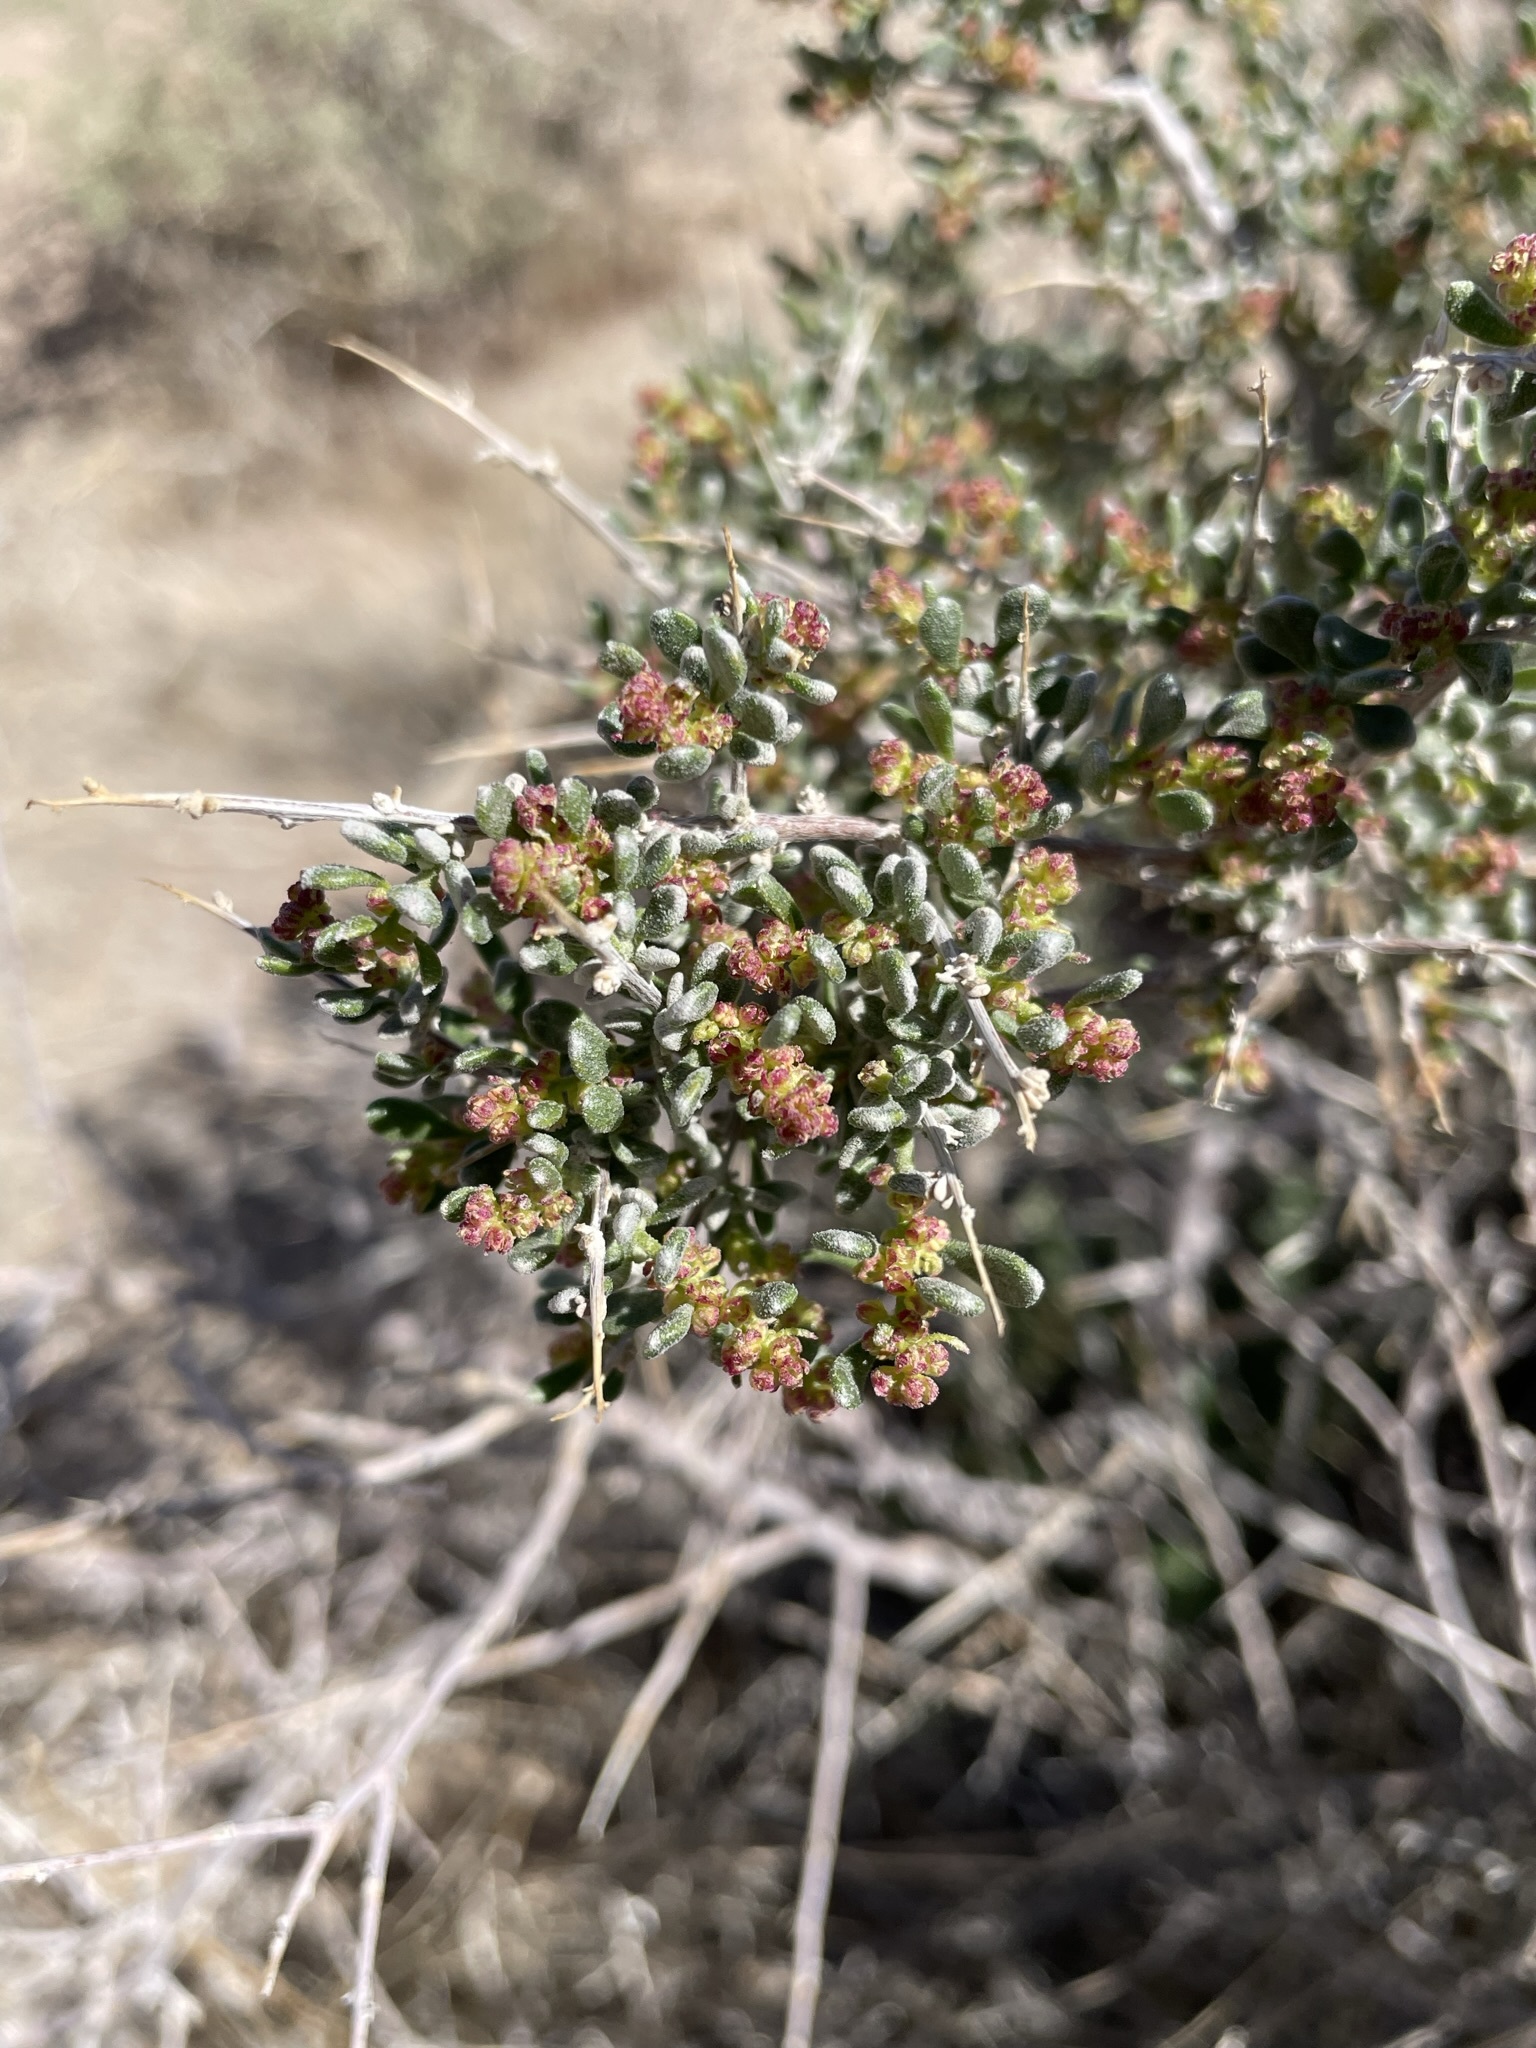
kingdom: Plantae
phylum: Tracheophyta
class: Magnoliopsida
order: Caryophyllales
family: Amaranthaceae
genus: Grayia
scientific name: Grayia spinosa
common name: Spiny hopsage
